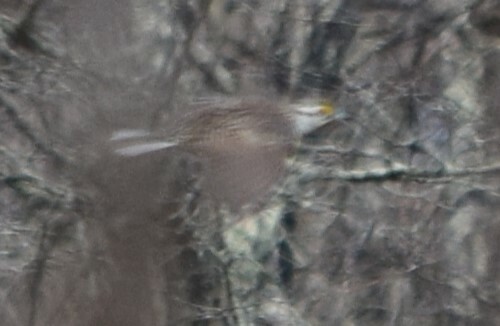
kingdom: Animalia
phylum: Chordata
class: Aves
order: Passeriformes
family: Icteridae
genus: Sturnella
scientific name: Sturnella magna
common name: Eastern meadowlark
